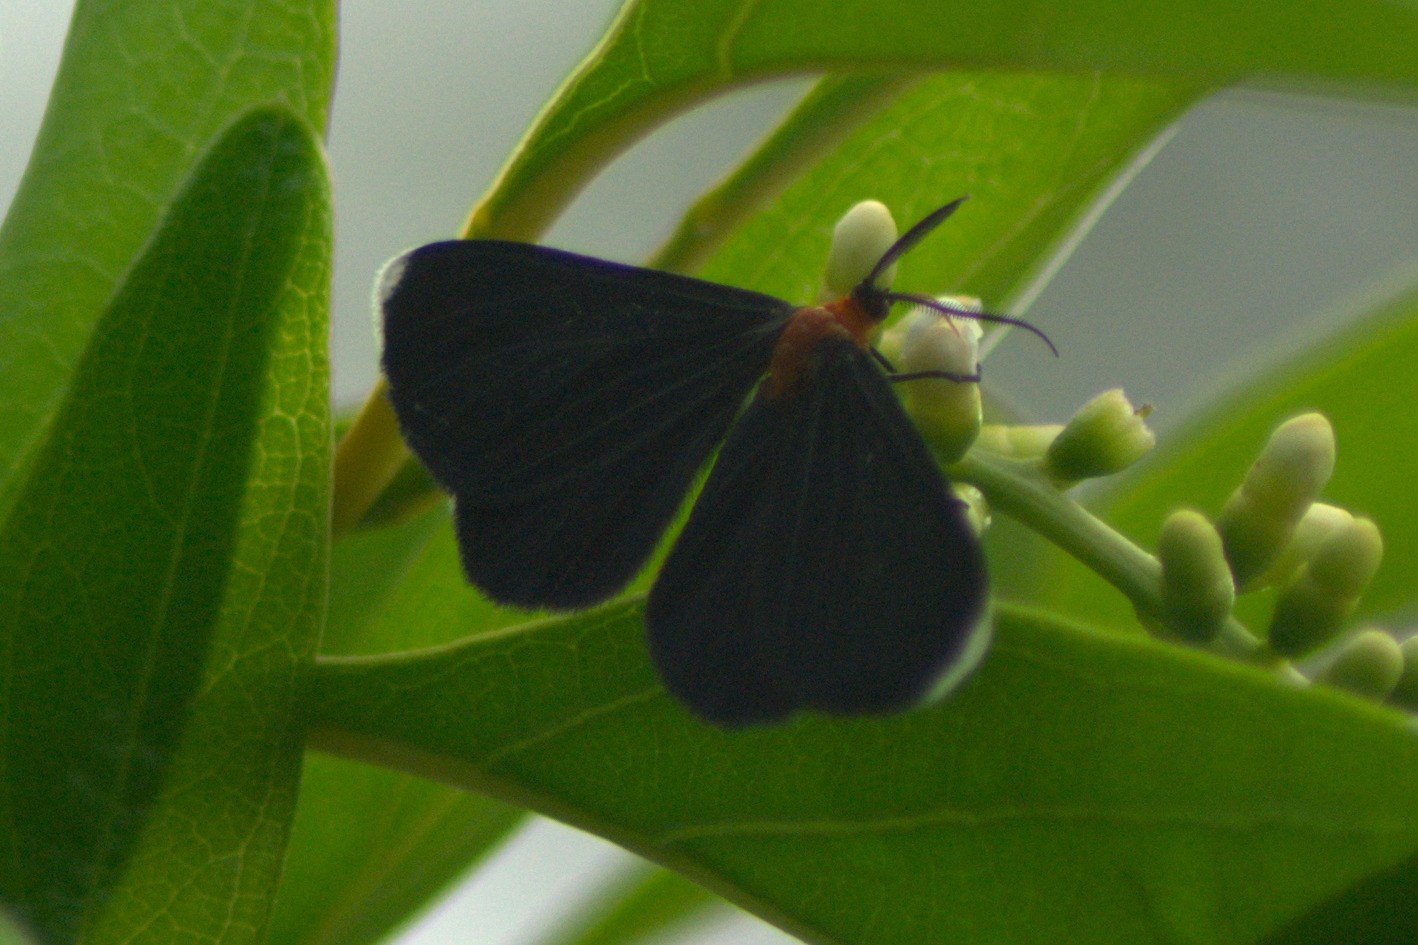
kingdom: Animalia
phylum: Arthropoda
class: Insecta
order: Lepidoptera
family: Geometridae
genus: Melanchroia
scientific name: Melanchroia chephise
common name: White-tipped black
